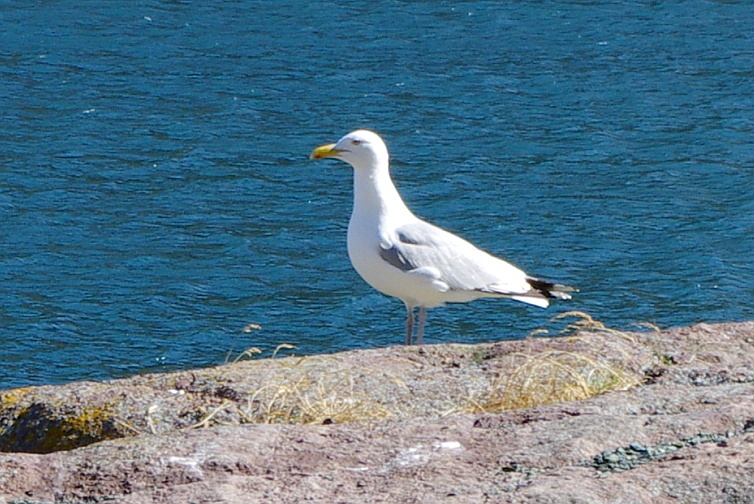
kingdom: Animalia
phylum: Chordata
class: Aves
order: Charadriiformes
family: Laridae
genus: Larus
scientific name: Larus smithsonianus
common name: American herring gull
